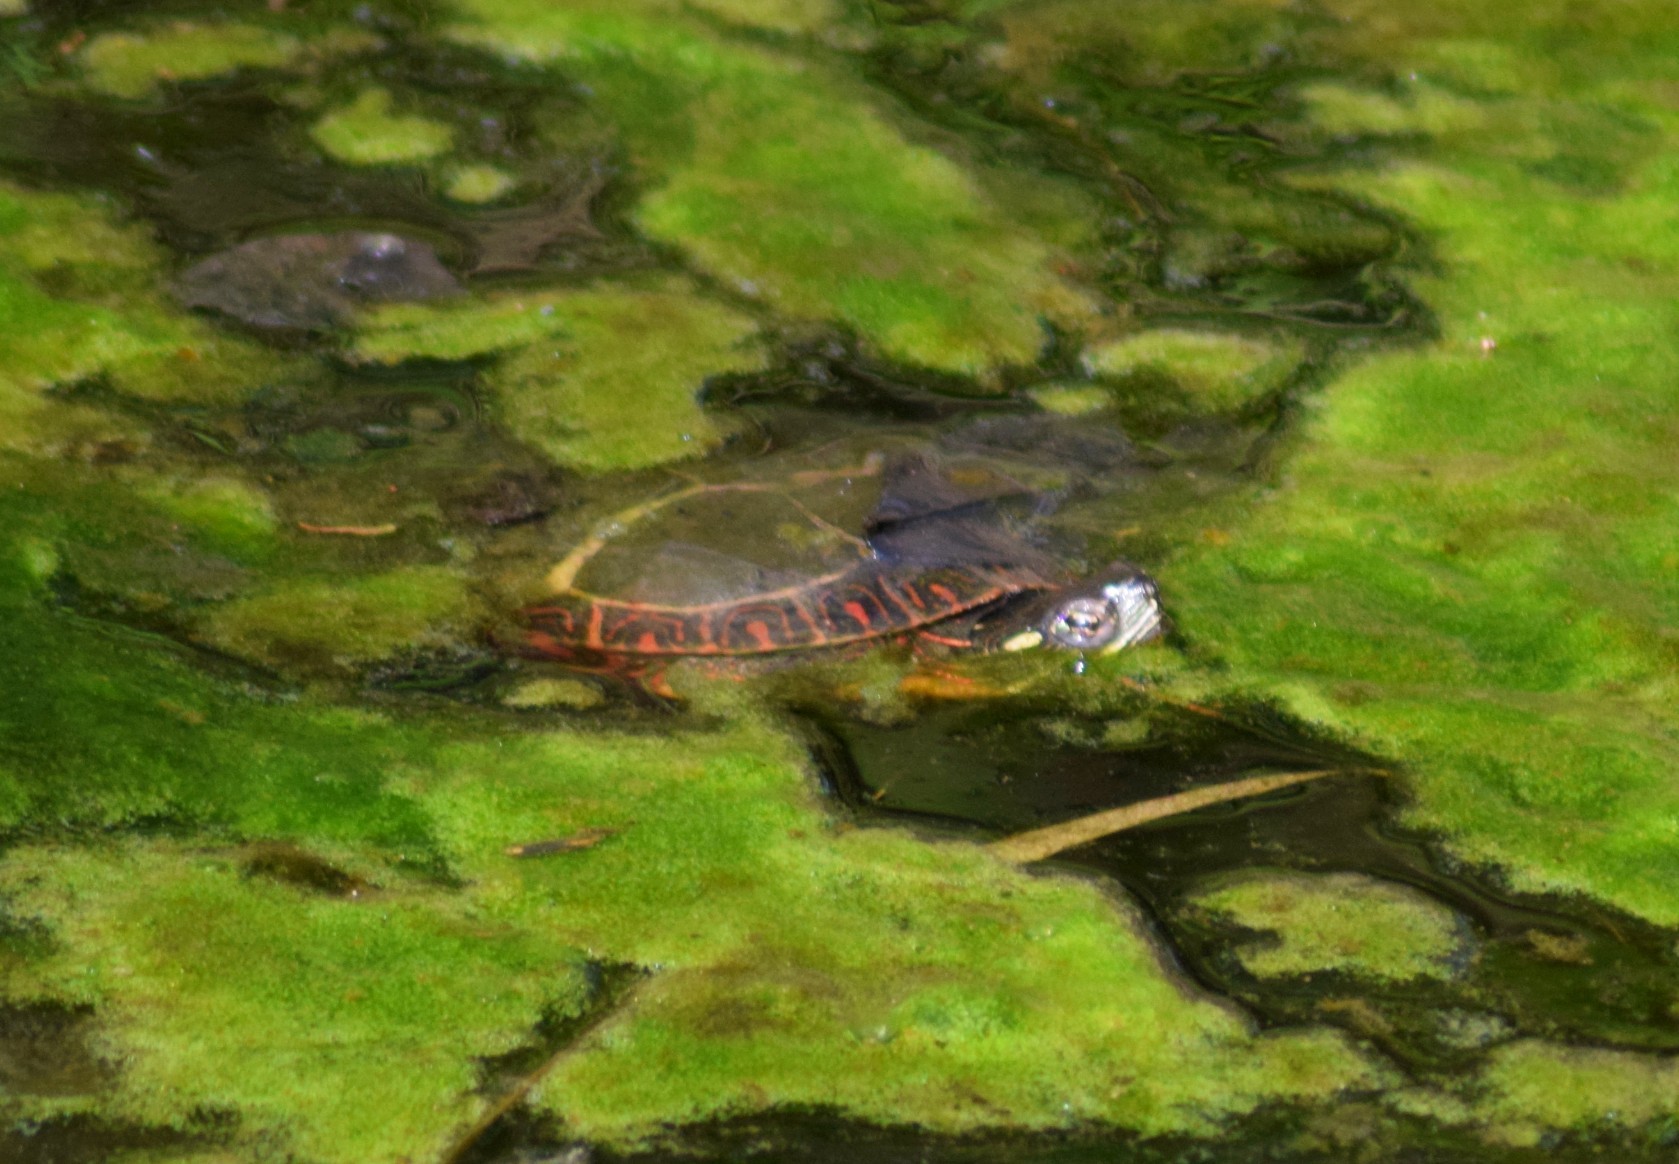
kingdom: Animalia
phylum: Chordata
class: Testudines
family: Emydidae
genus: Chrysemys
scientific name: Chrysemys picta
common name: Painted turtle
